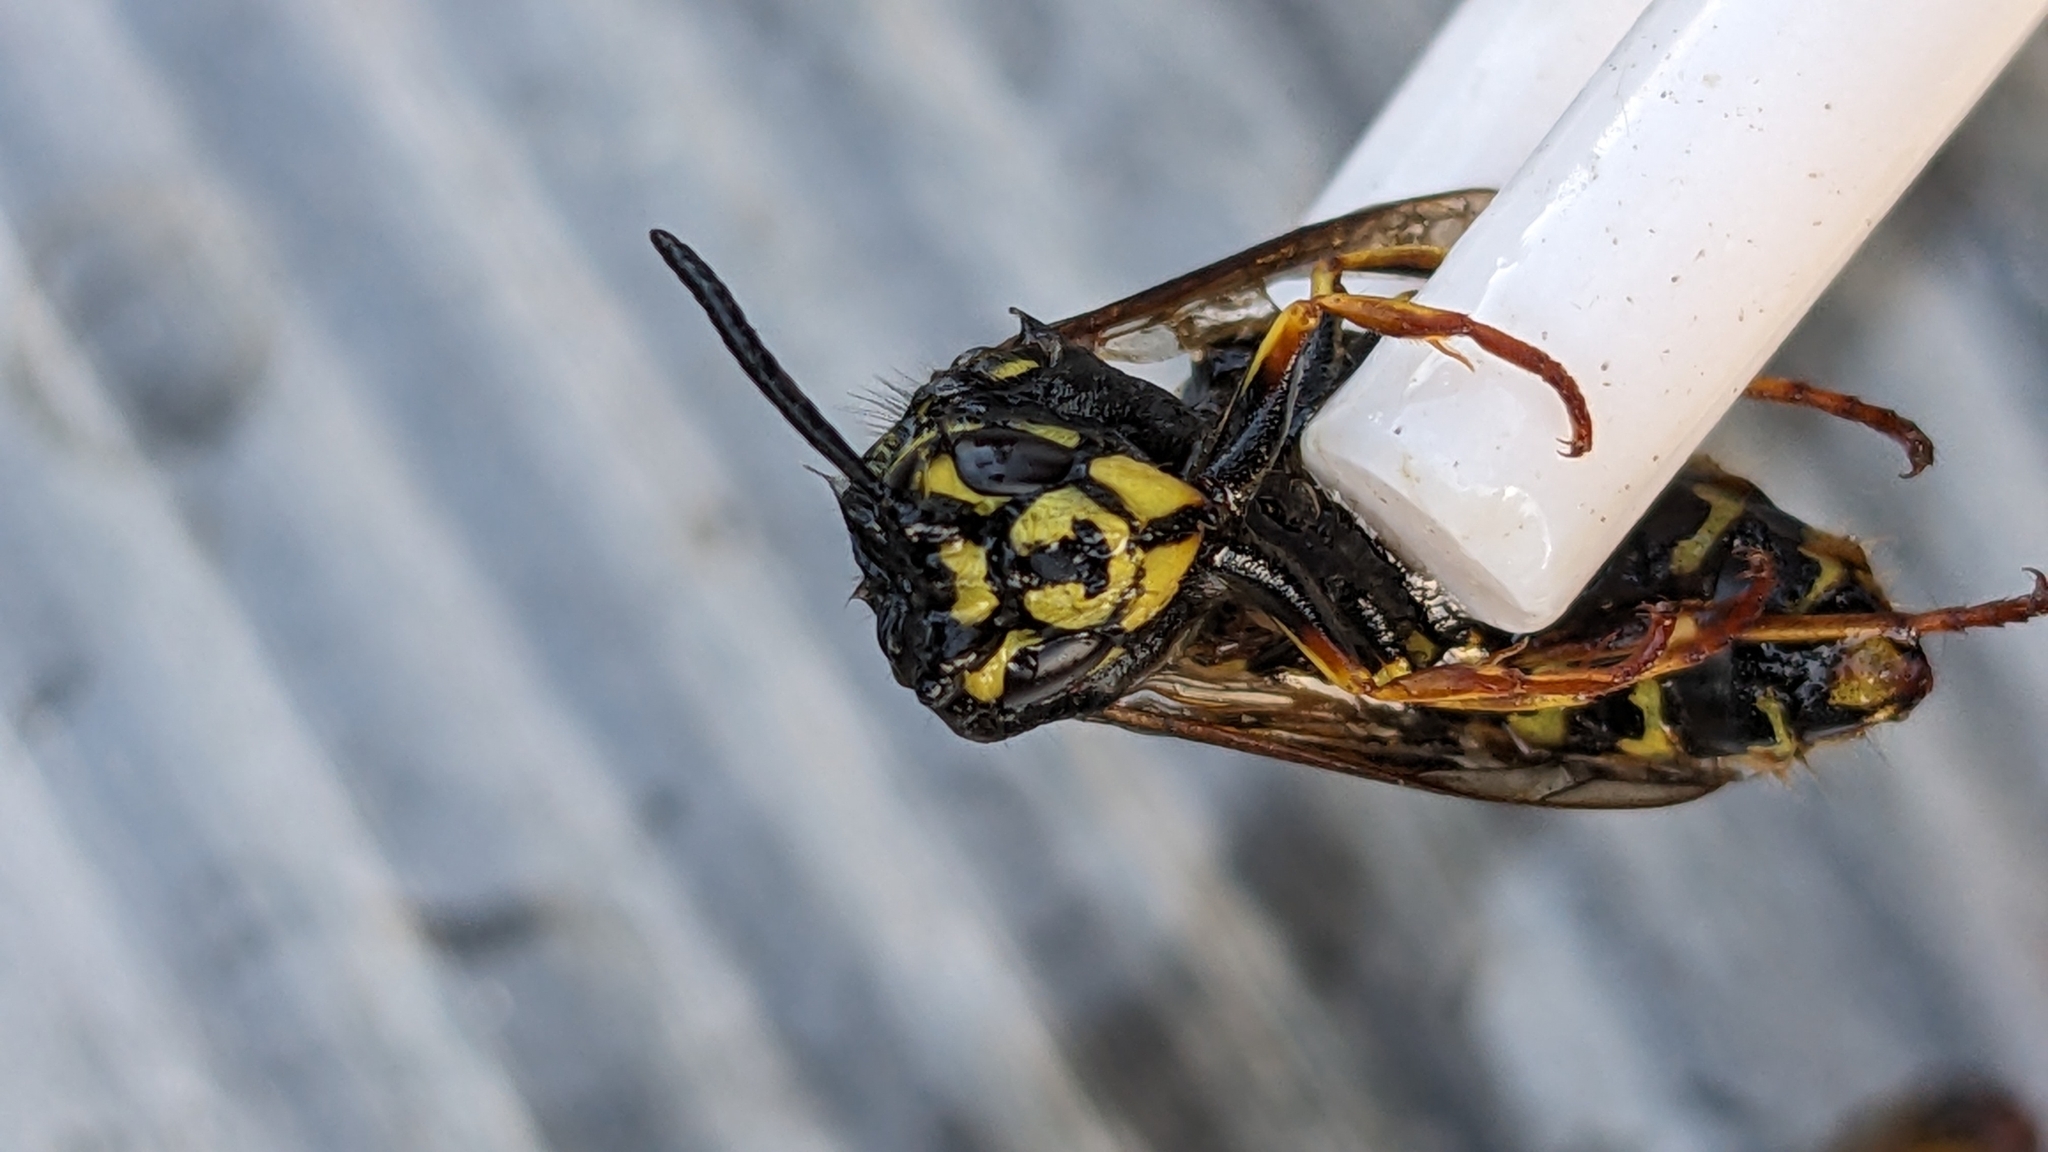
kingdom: Animalia
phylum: Arthropoda
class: Insecta
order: Hymenoptera
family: Vespidae
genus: Vespula
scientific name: Vespula vulgaris
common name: Common wasp
